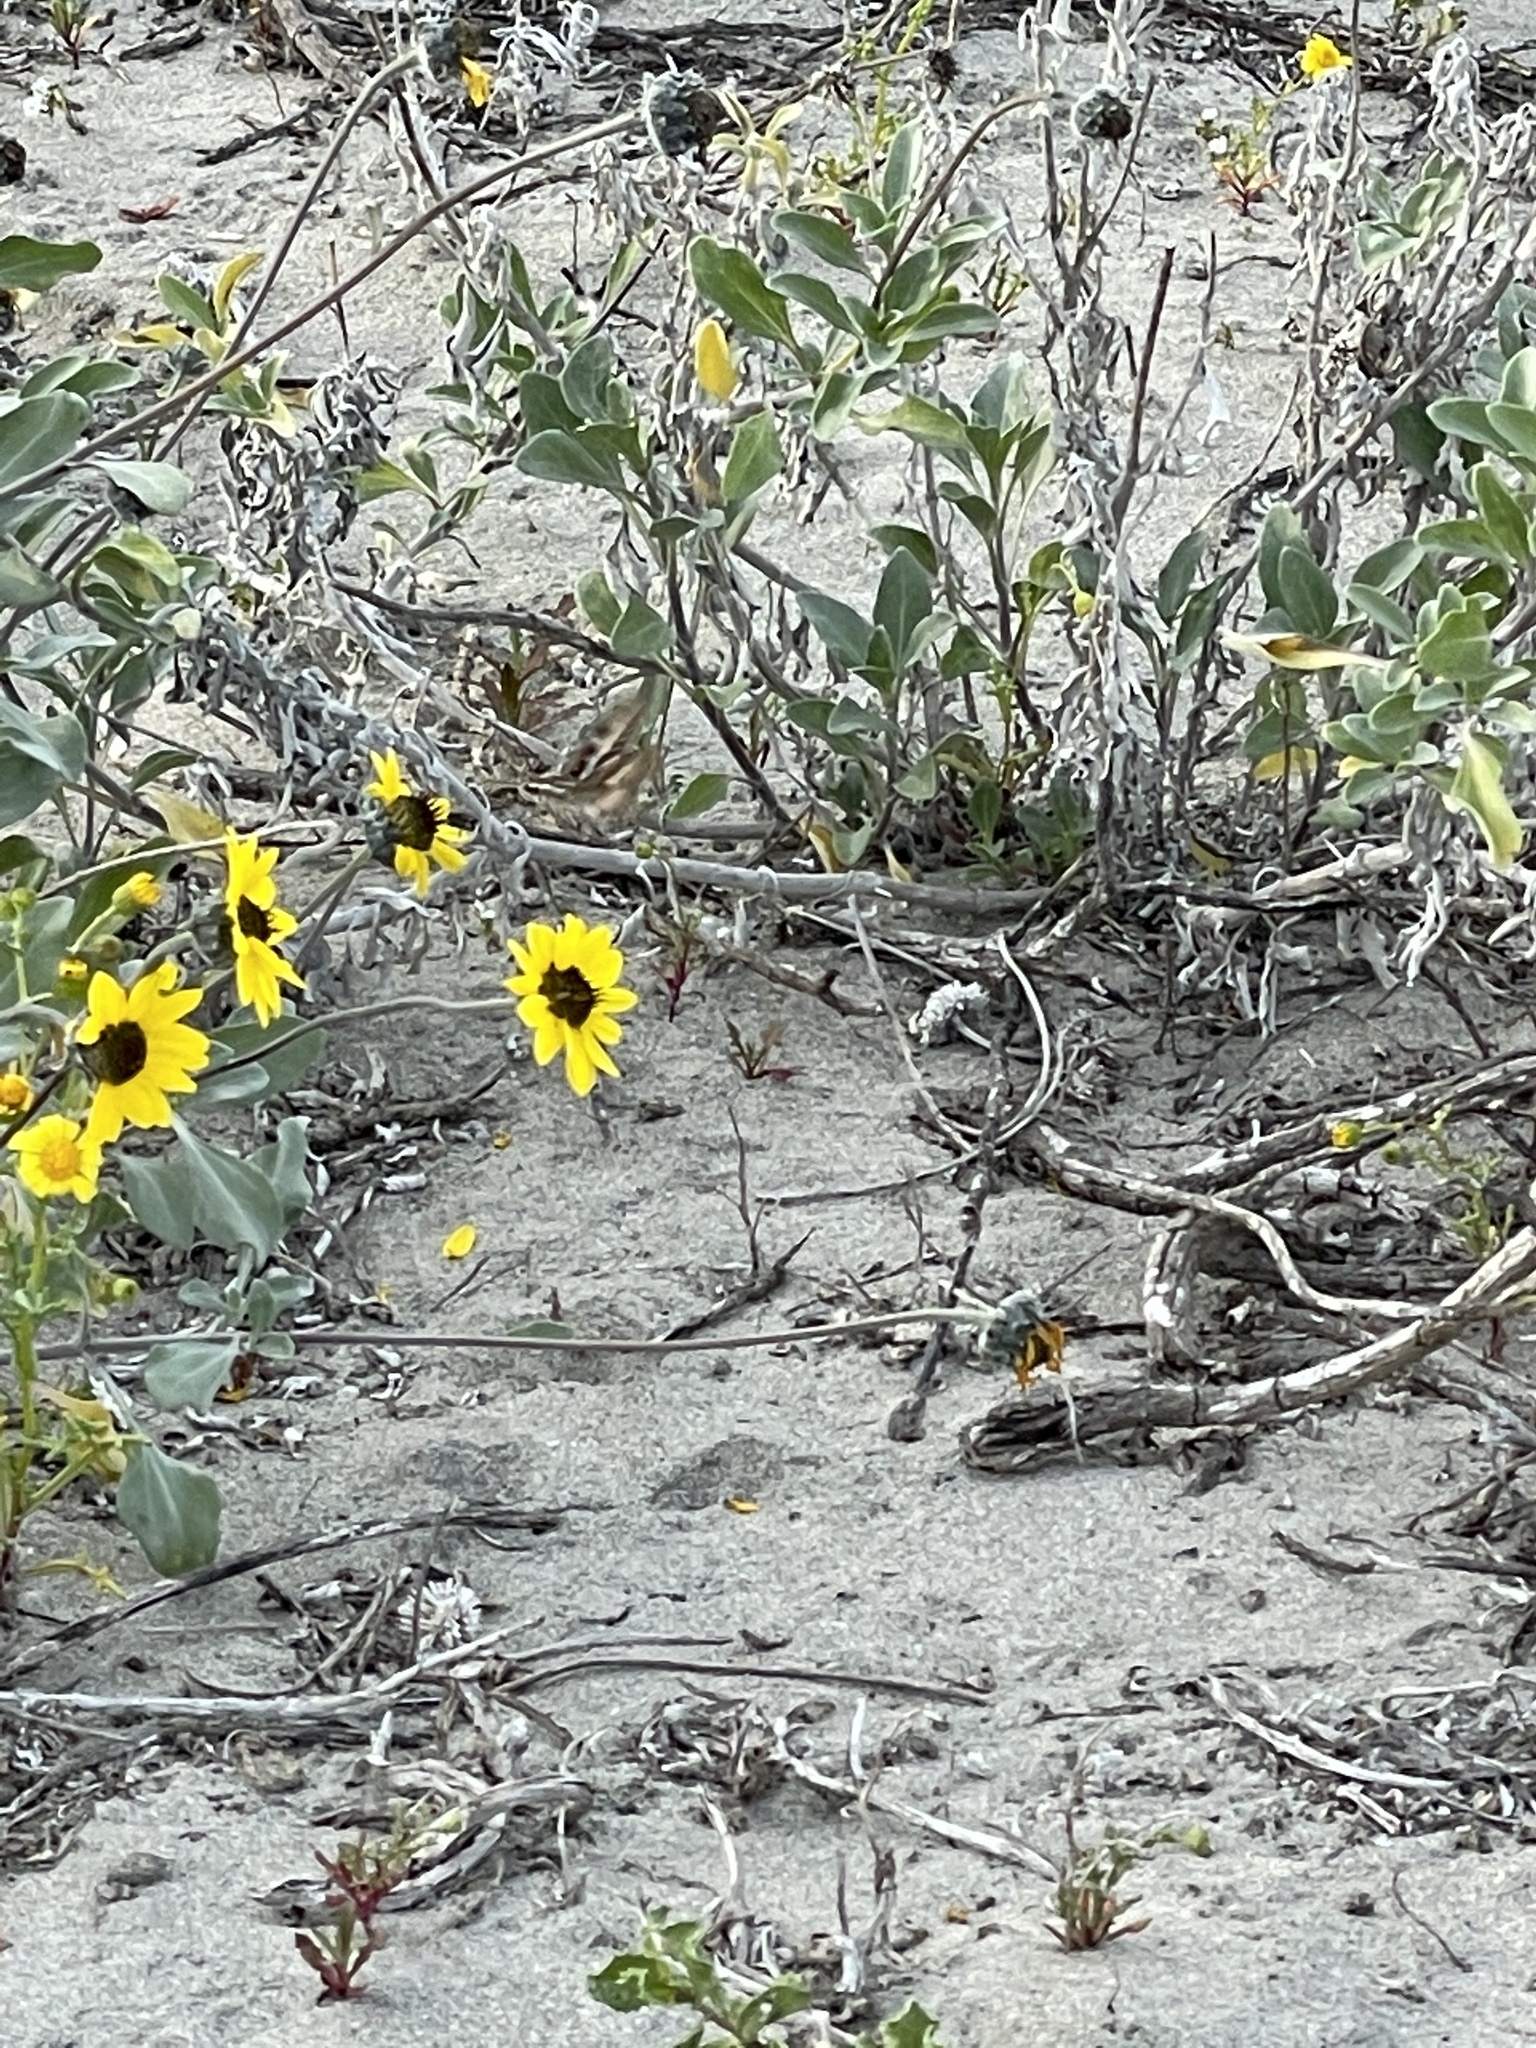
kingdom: Plantae
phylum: Tracheophyta
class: Magnoliopsida
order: Asterales
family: Asteraceae
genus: Helianthus
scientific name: Helianthus niveus
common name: Snowy sunflower
